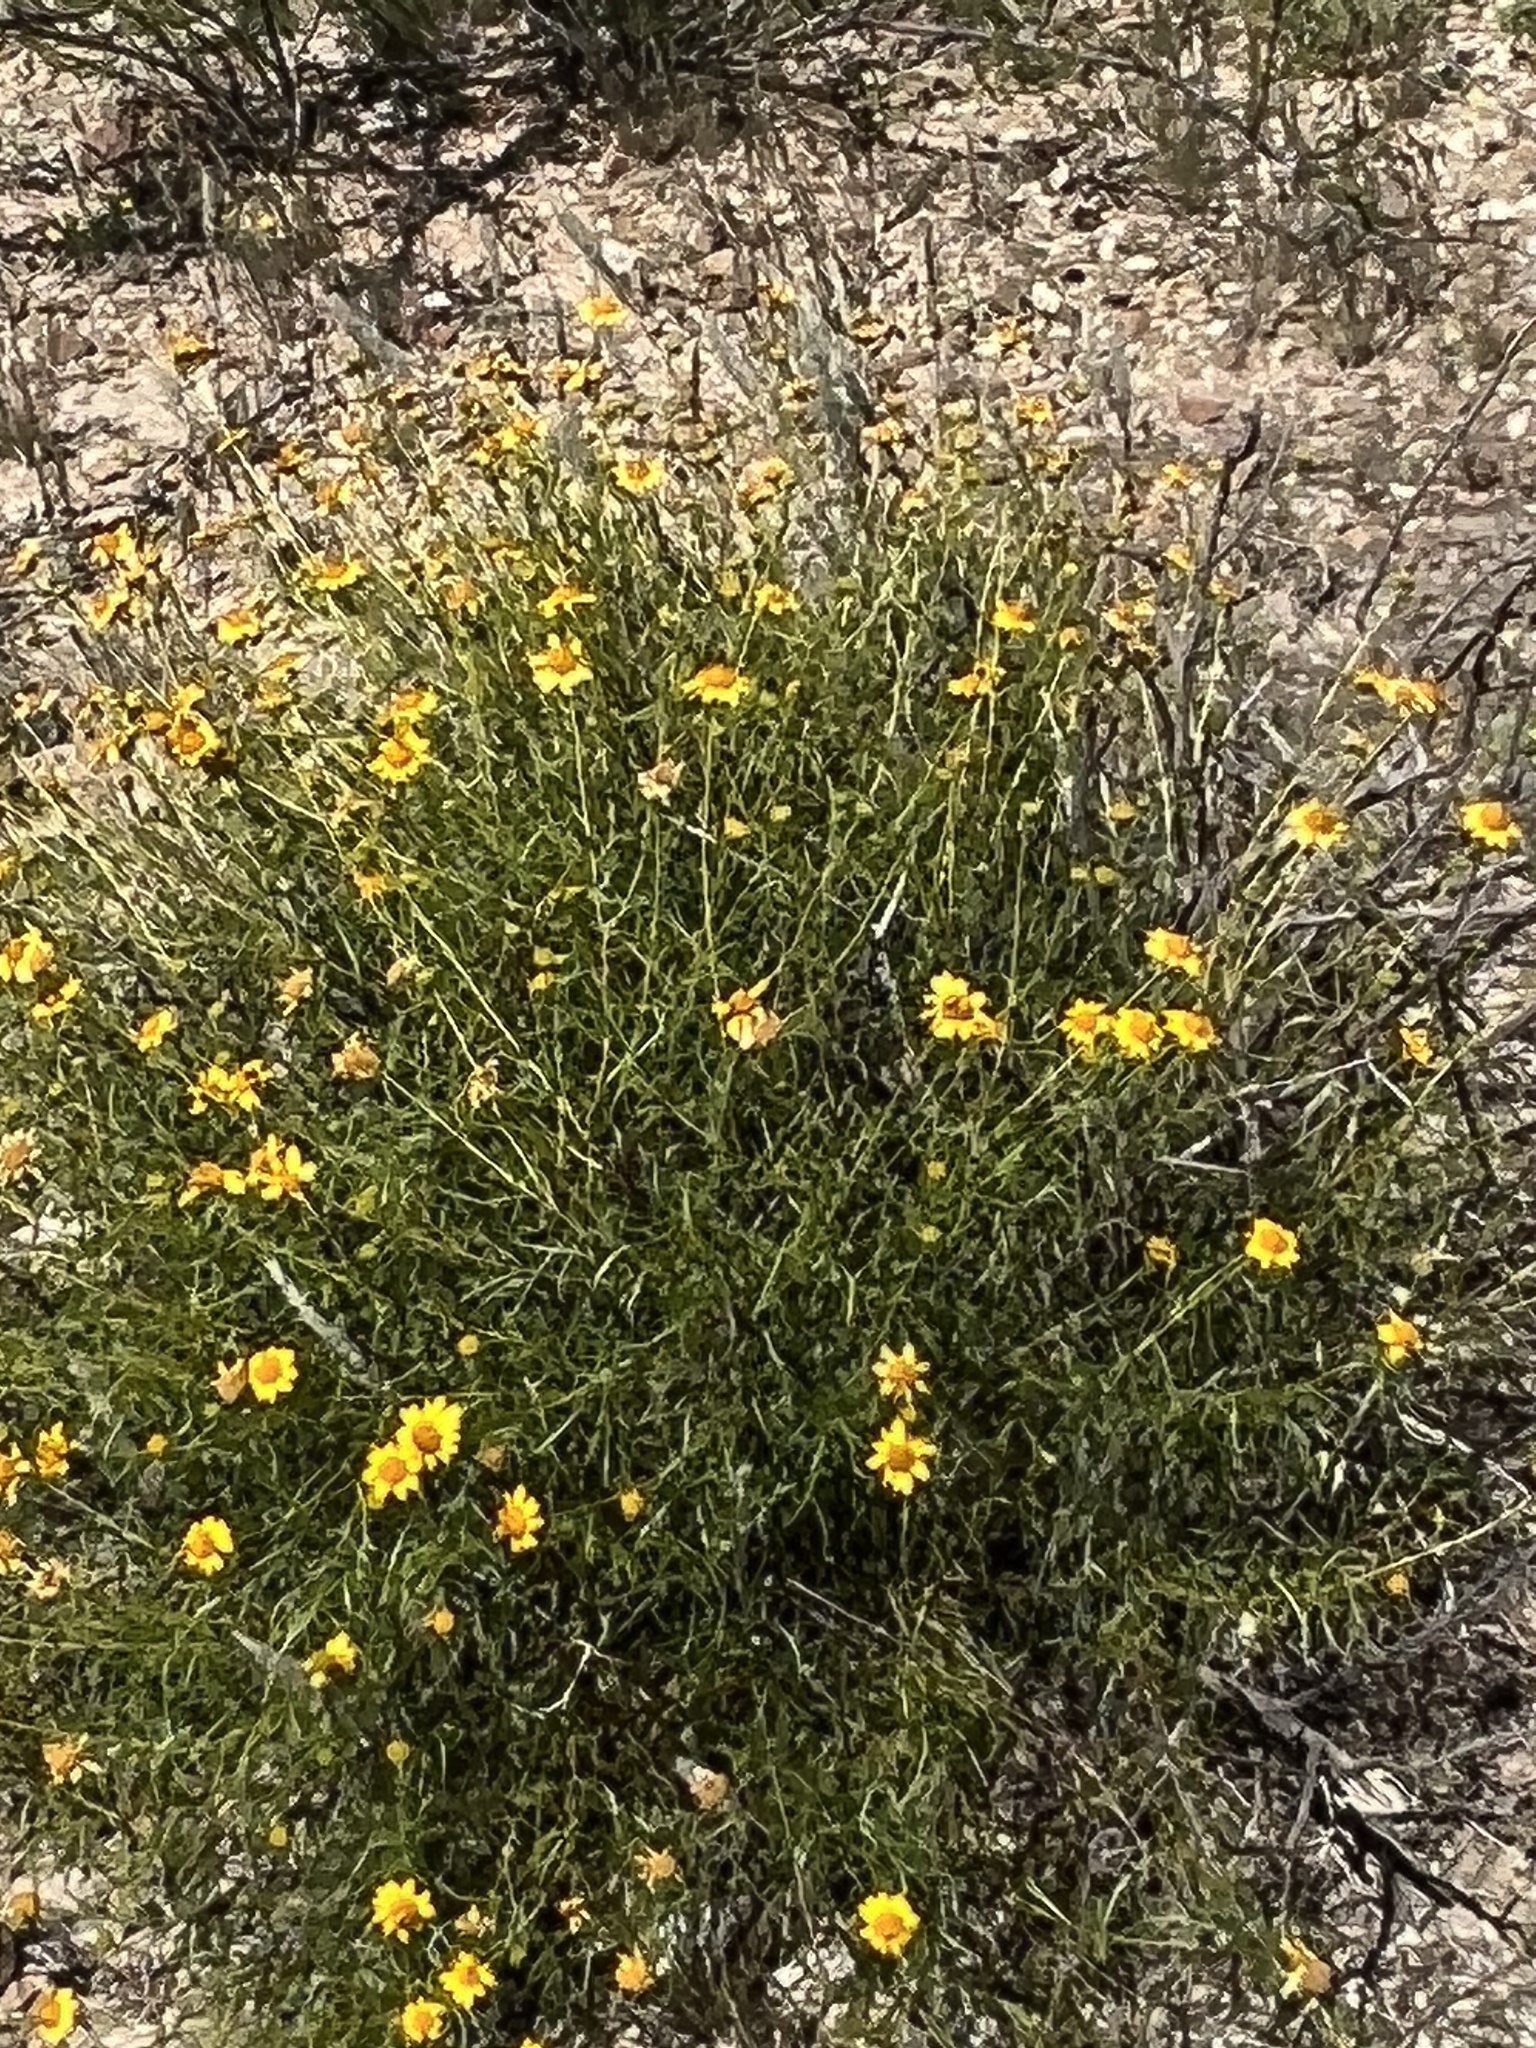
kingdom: Plantae
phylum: Tracheophyta
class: Magnoliopsida
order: Asterales
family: Asteraceae
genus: Sidneya
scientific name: Sidneya tenuifolia
